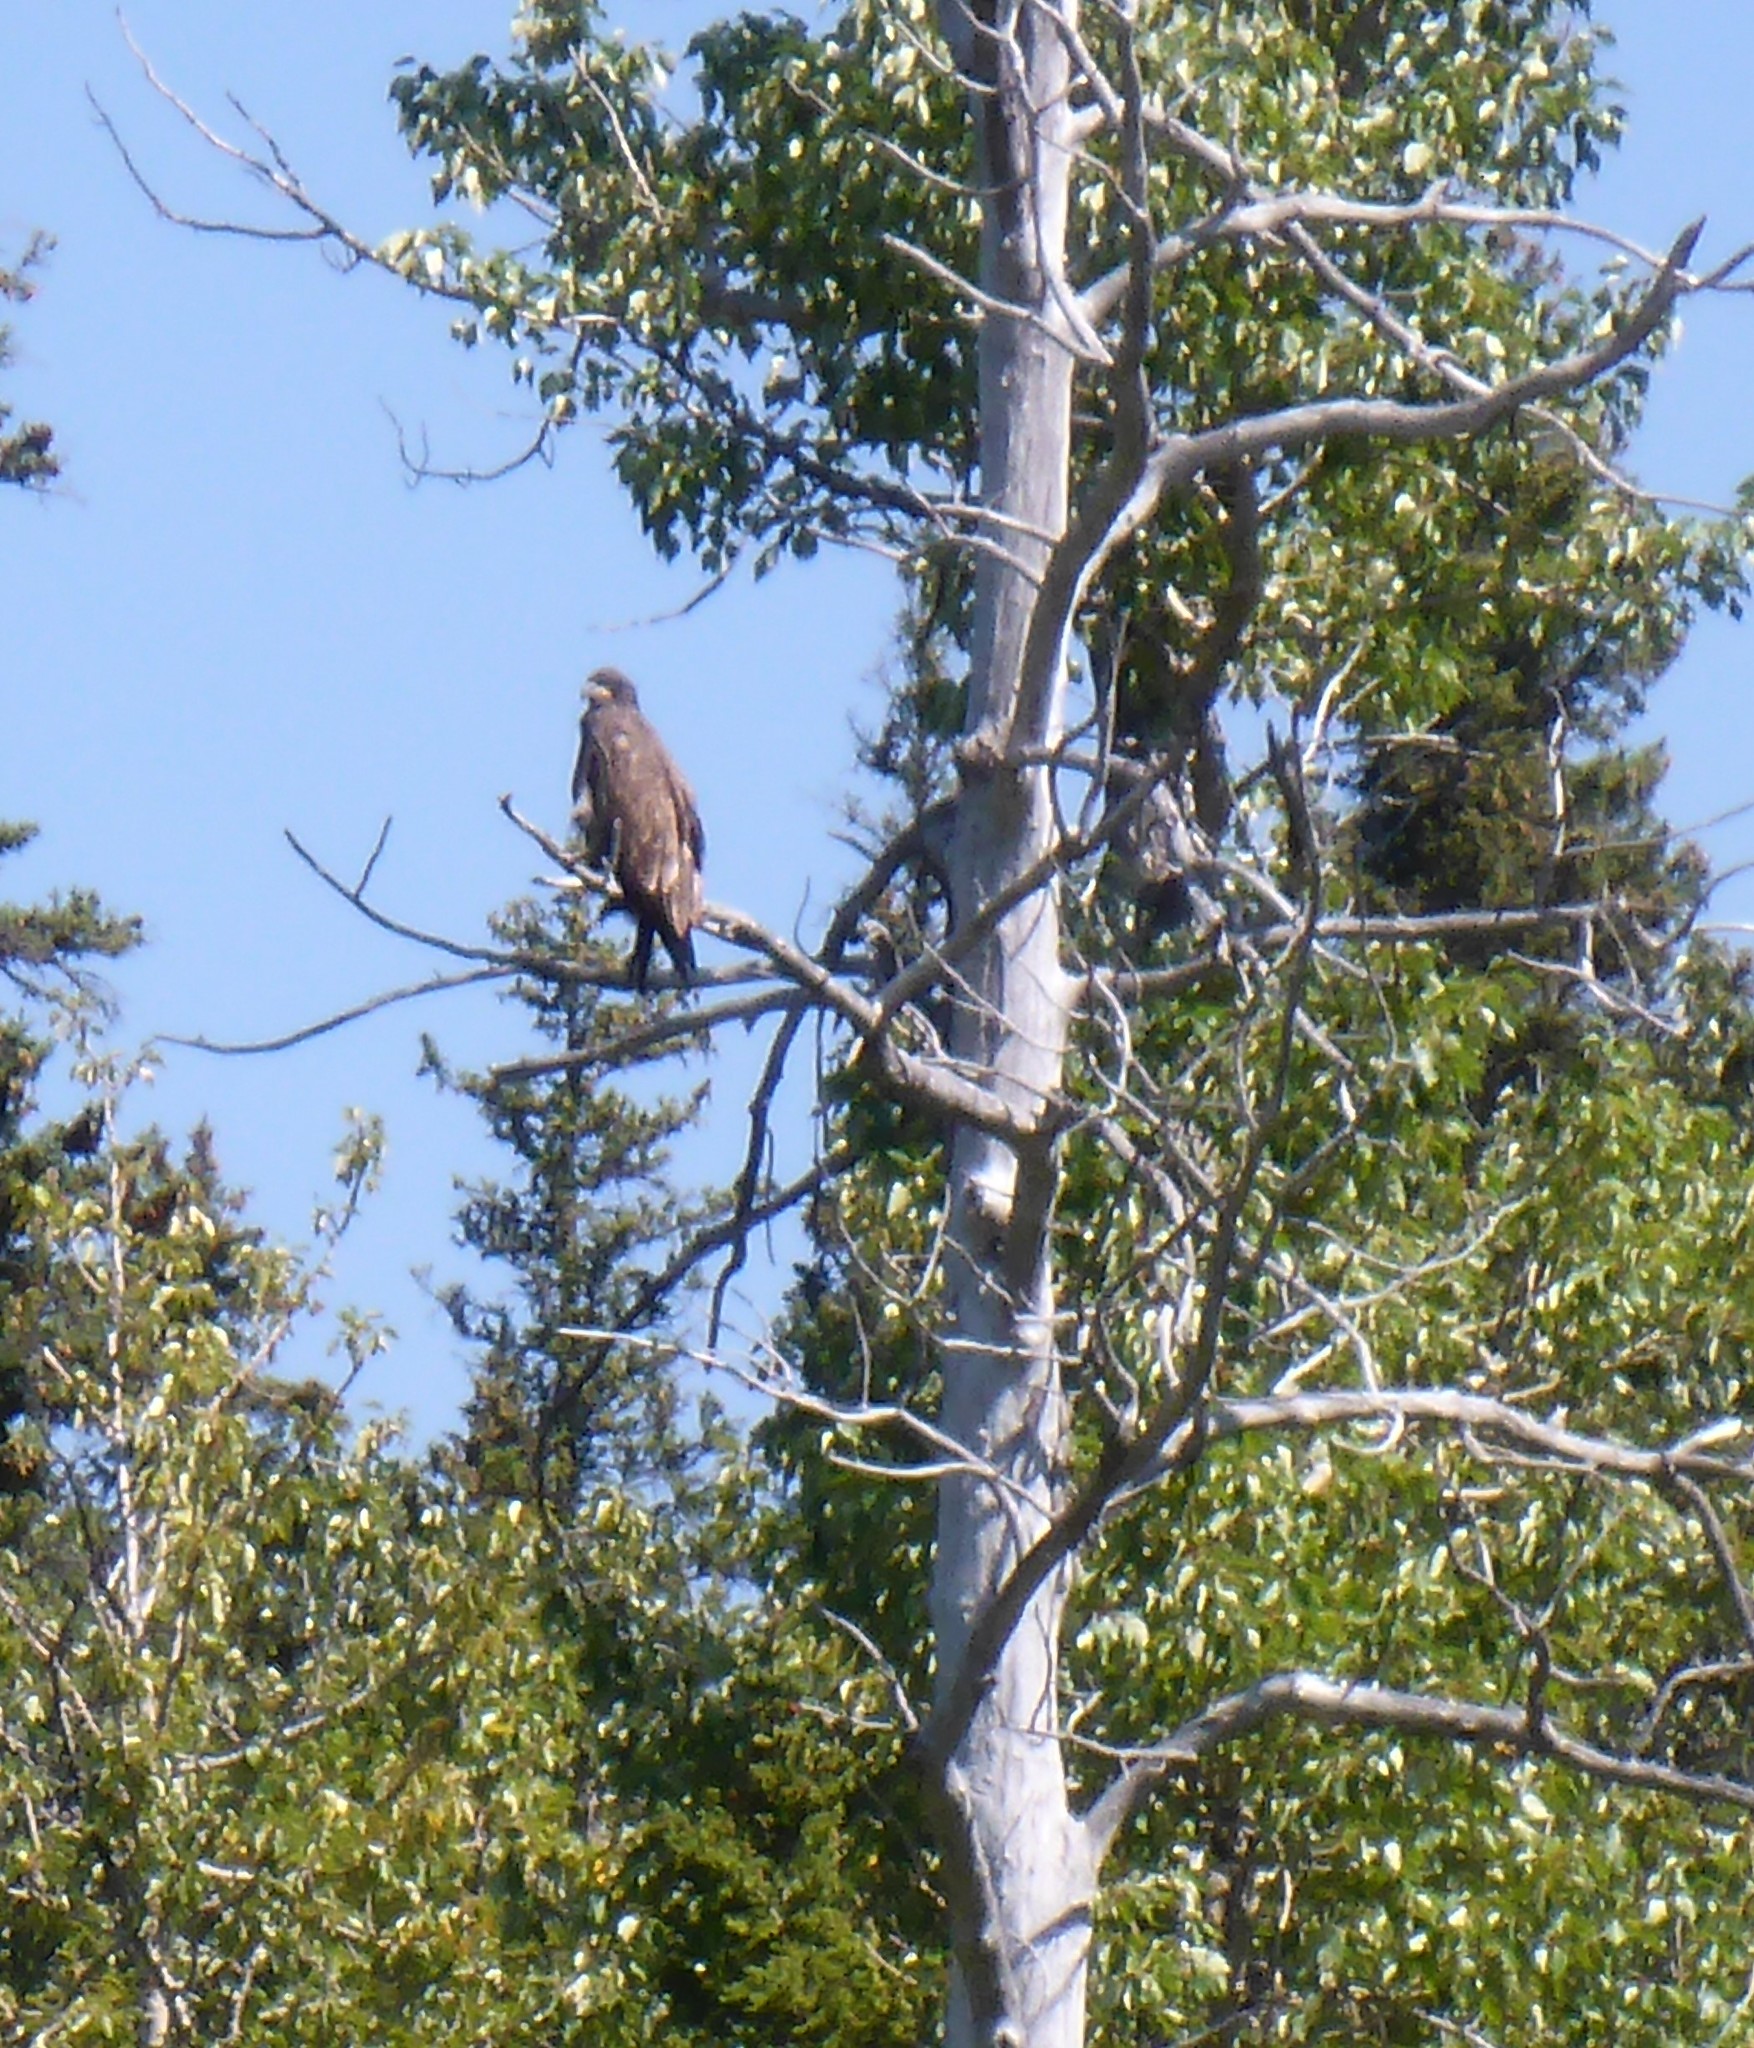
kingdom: Animalia
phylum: Chordata
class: Aves
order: Accipitriformes
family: Accipitridae
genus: Haliaeetus
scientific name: Haliaeetus leucocephalus
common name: Bald eagle
